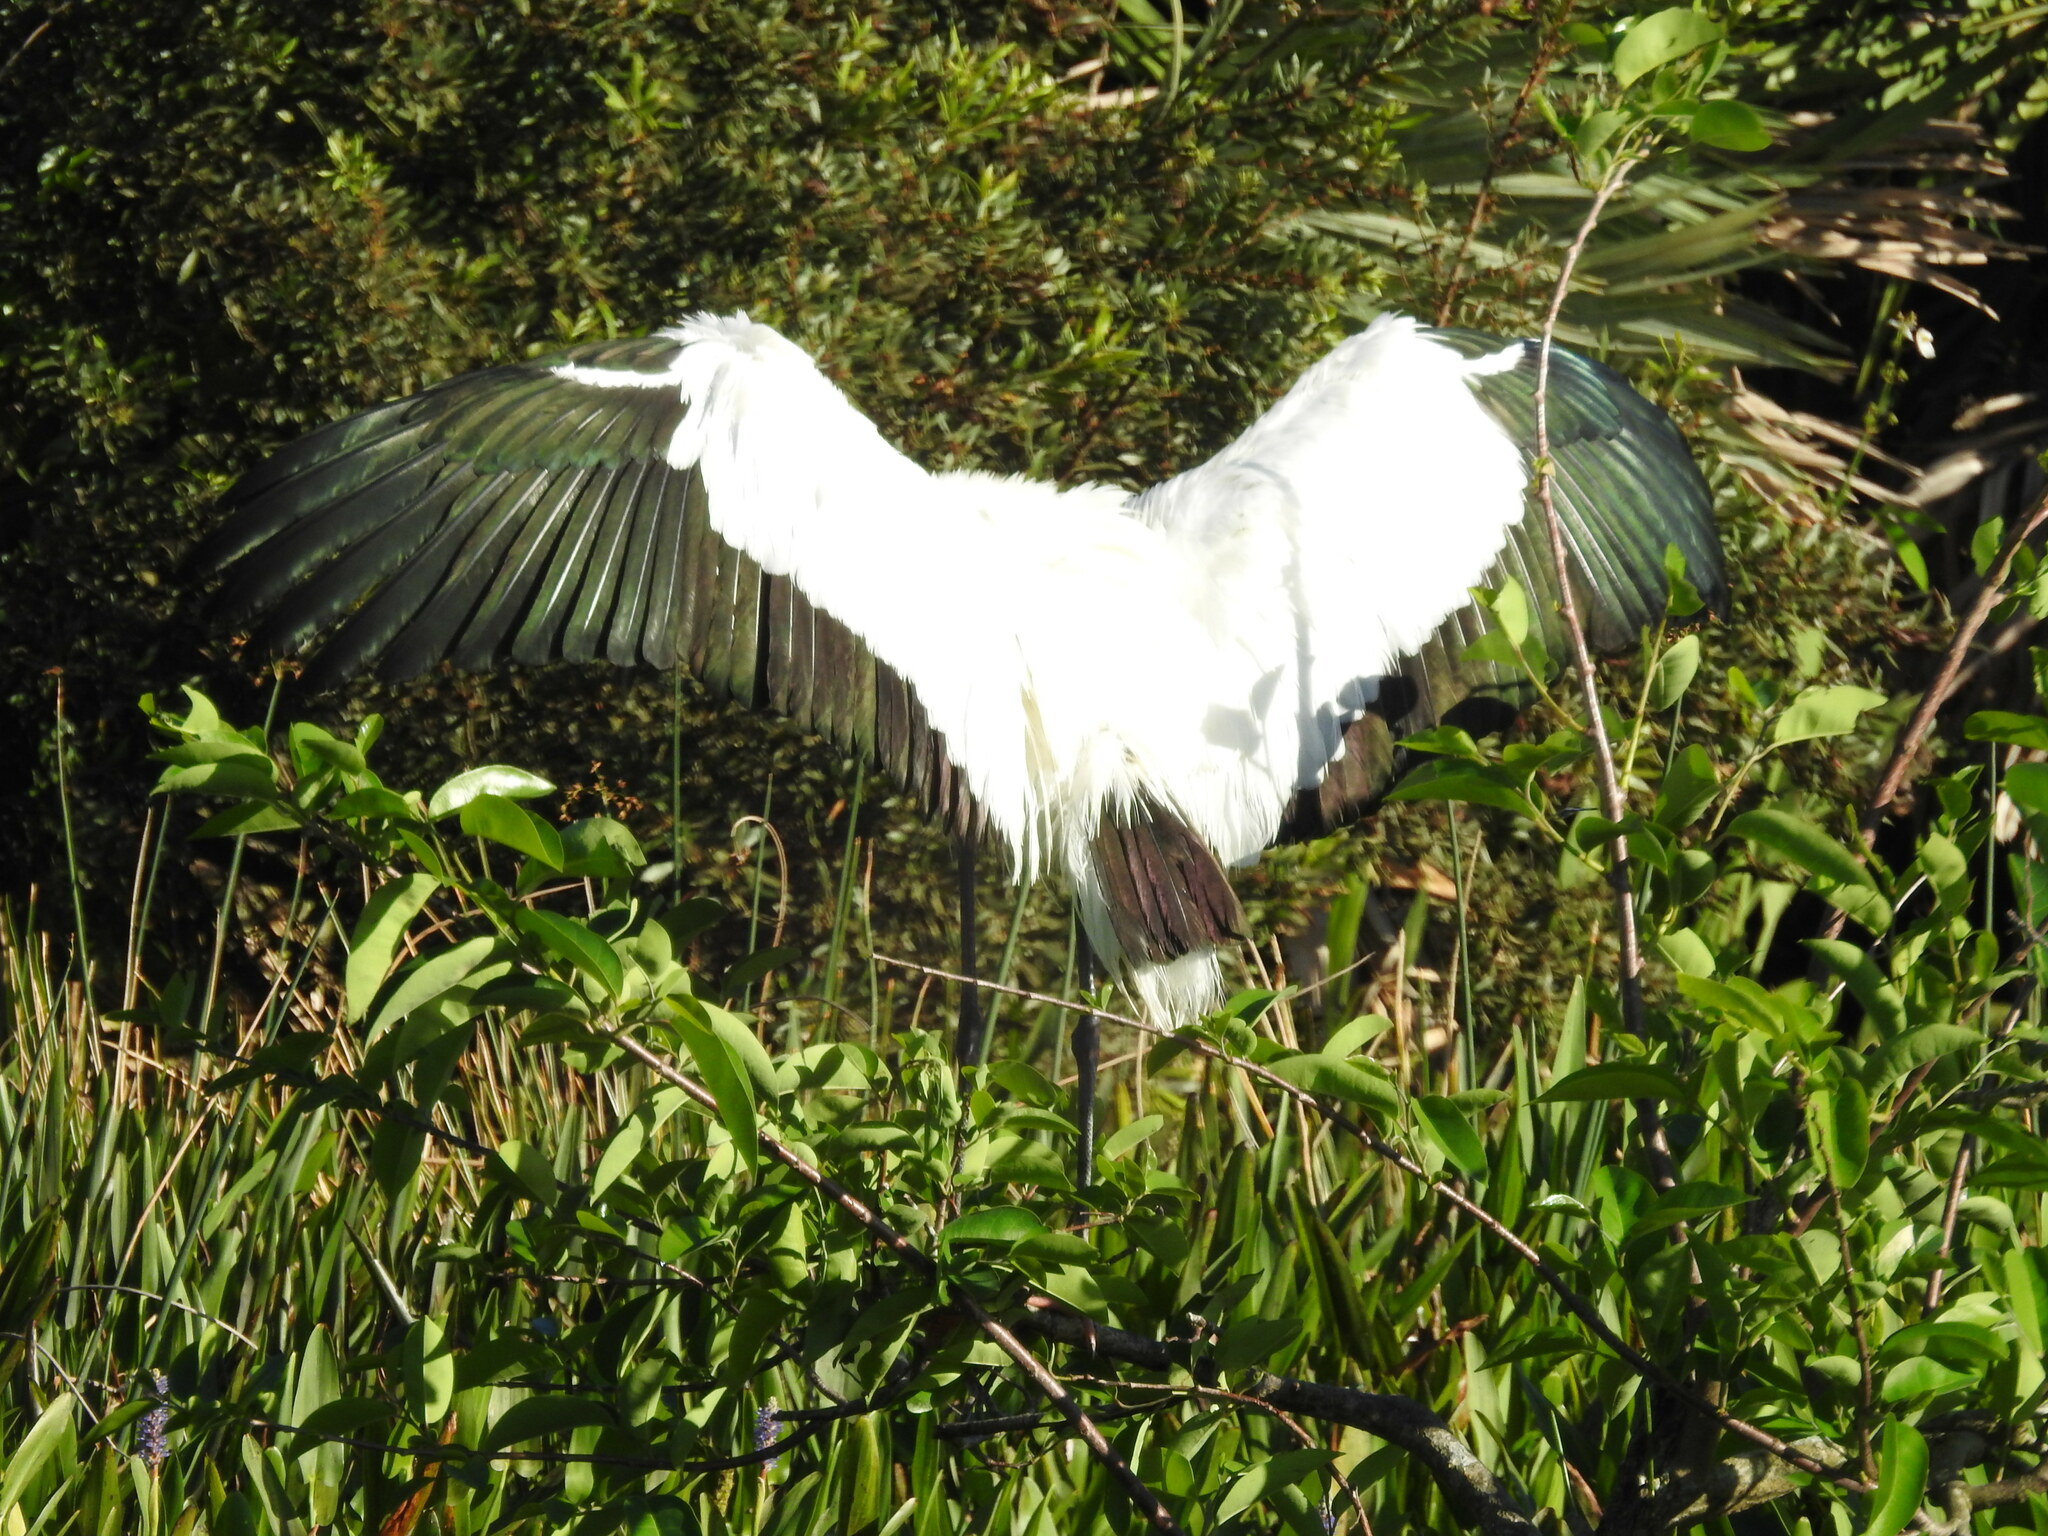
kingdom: Animalia
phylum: Chordata
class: Aves
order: Ciconiiformes
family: Ciconiidae
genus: Mycteria
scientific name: Mycteria americana
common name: Wood stork
